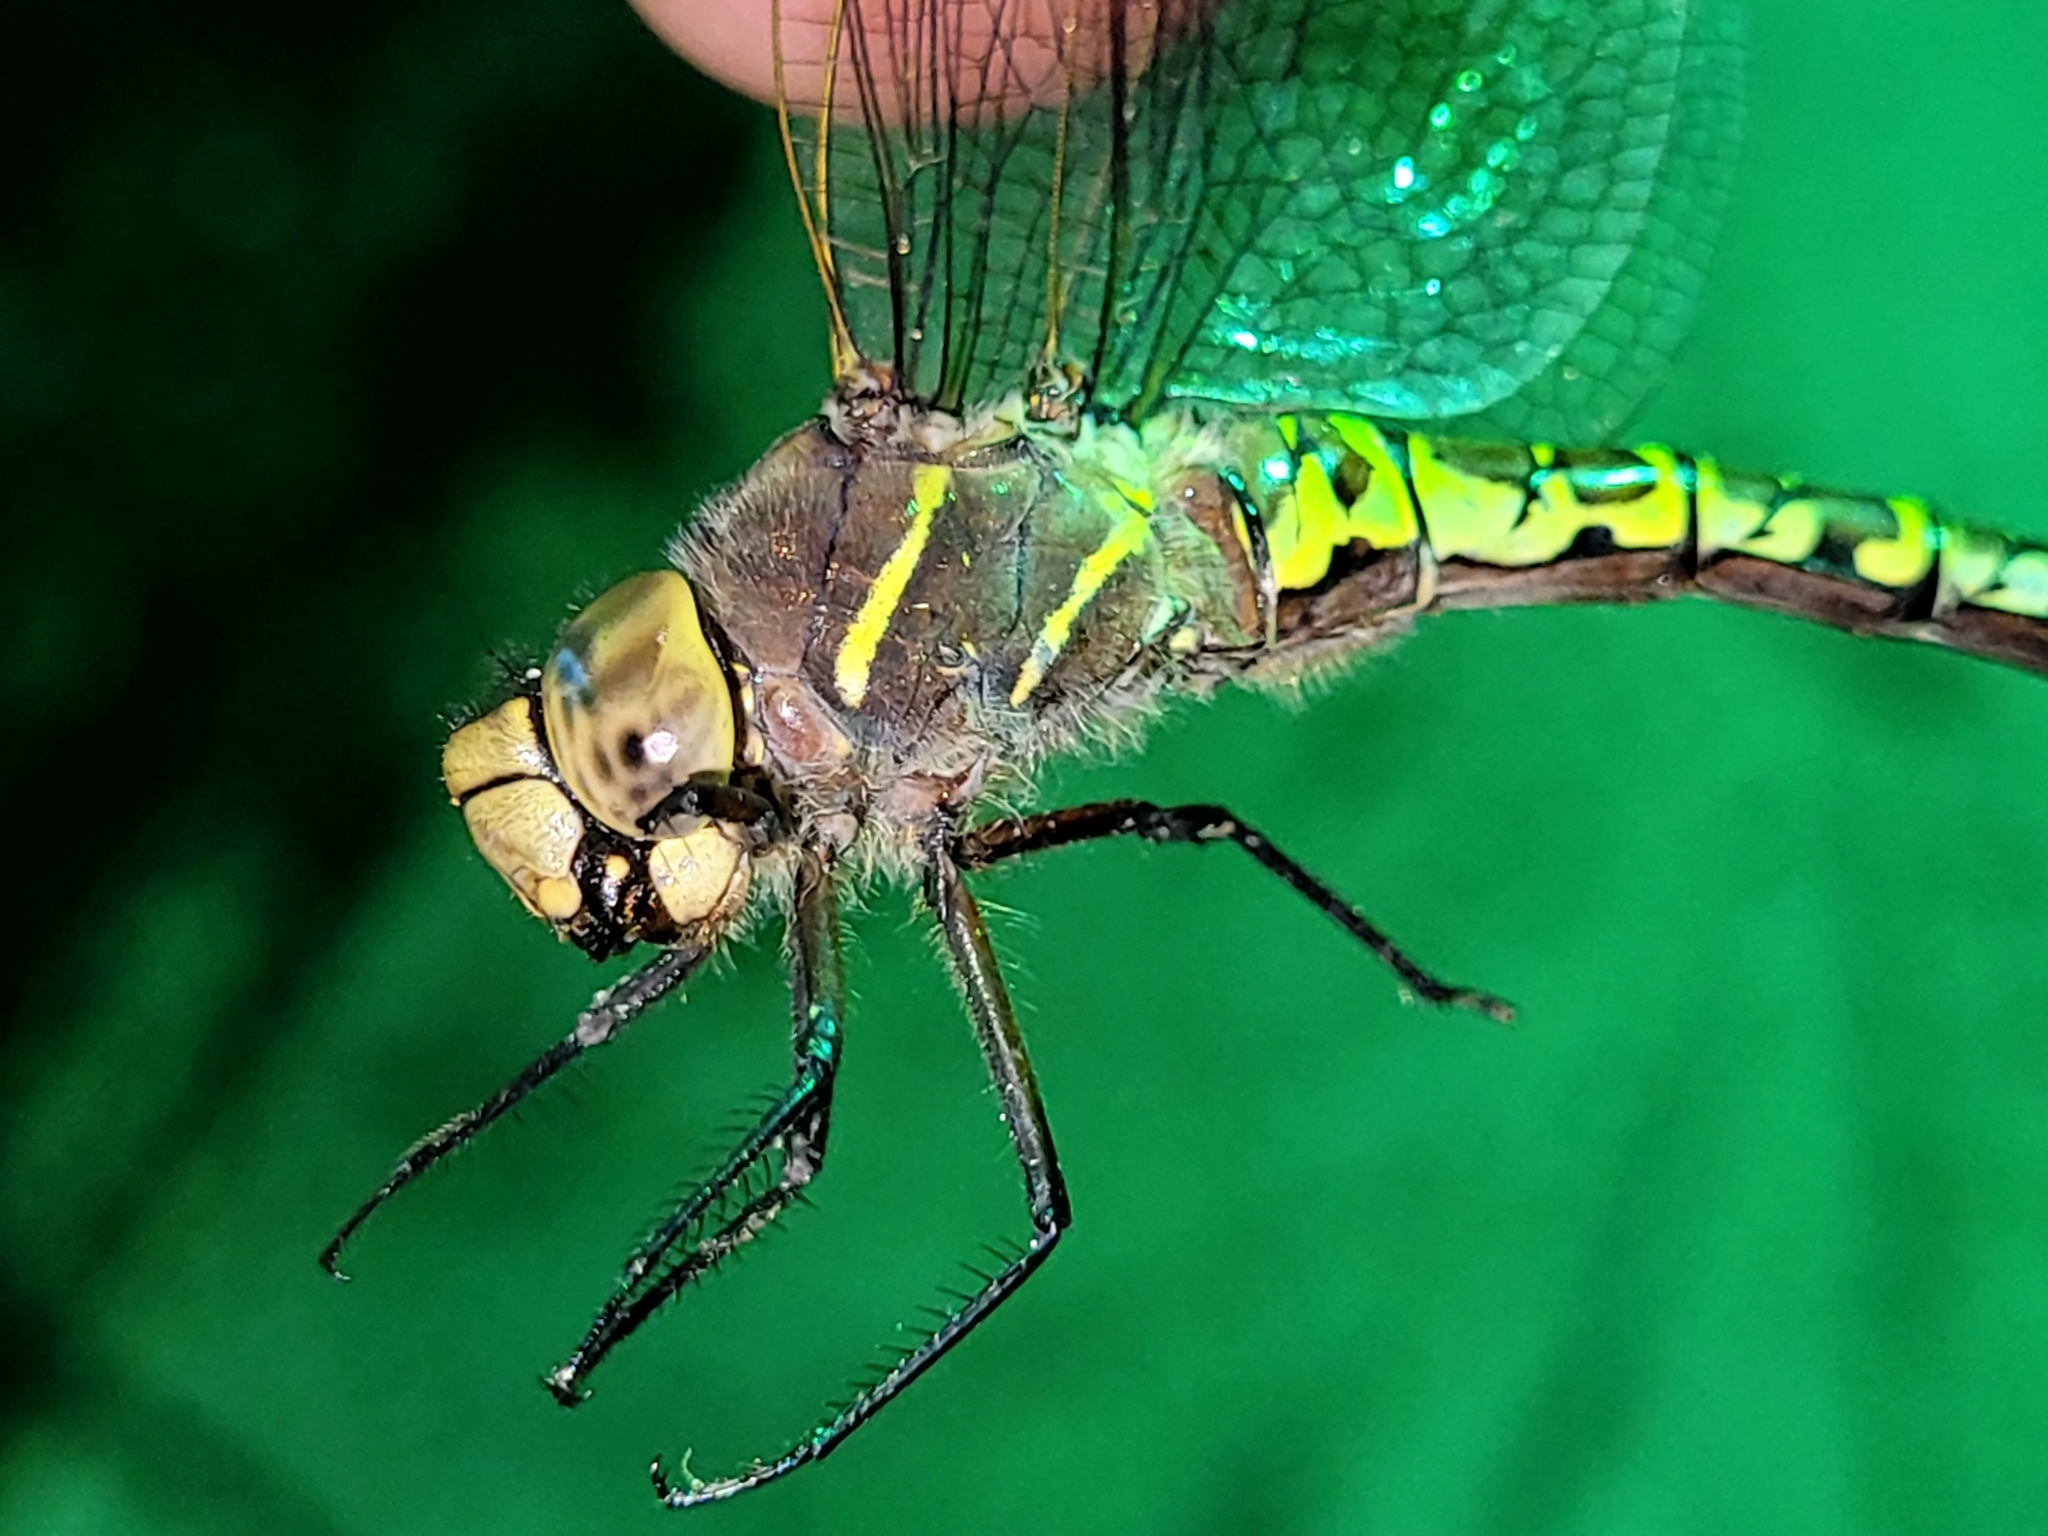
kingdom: Animalia
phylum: Arthropoda
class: Insecta
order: Odonata
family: Aeshnidae
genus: Aeshna
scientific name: Aeshna interrupta
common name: Variable darner
